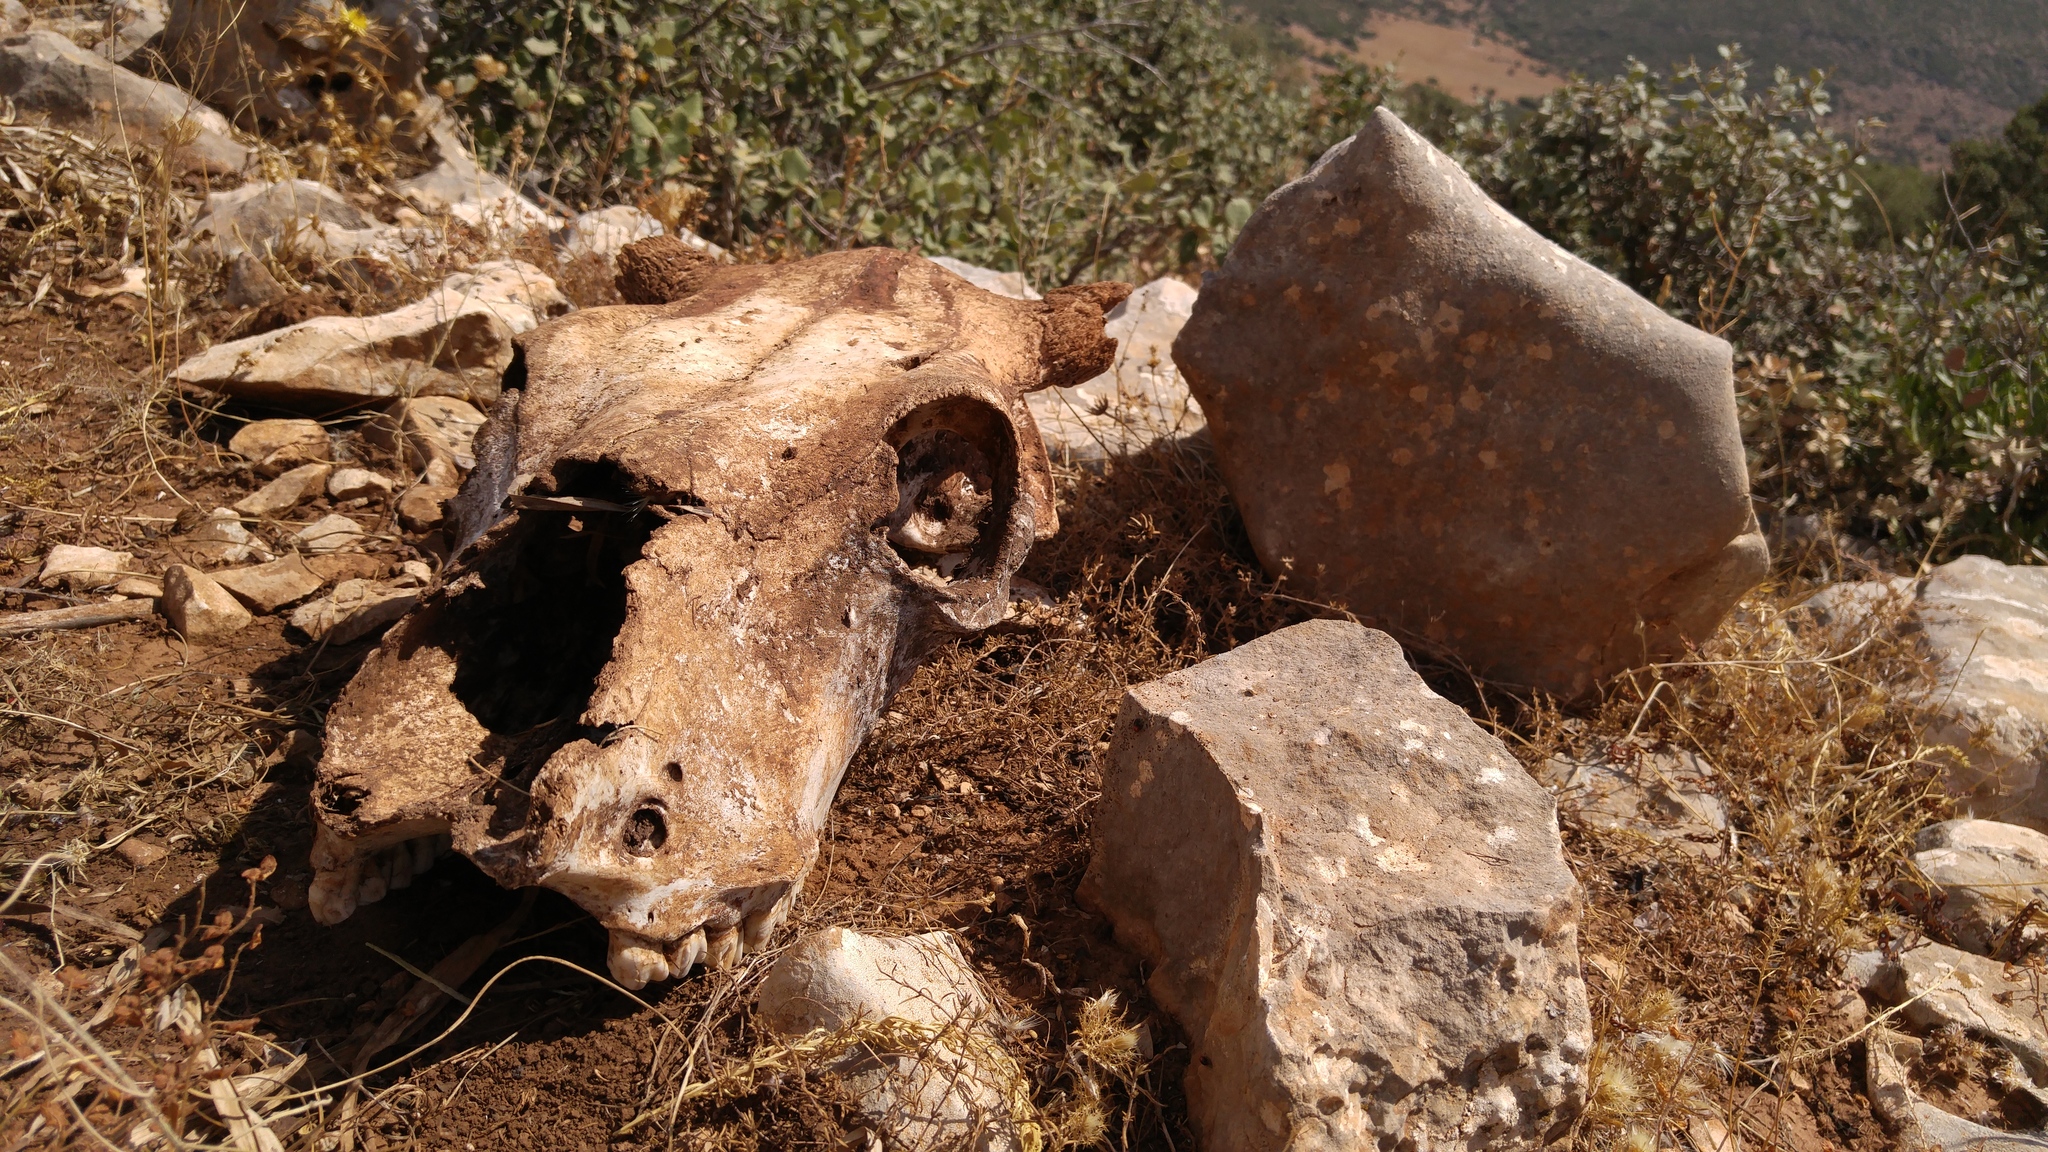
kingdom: Animalia
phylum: Chordata
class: Mammalia
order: Artiodactyla
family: Bovidae
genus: Bos
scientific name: Bos taurus
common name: Domesticated cattle
